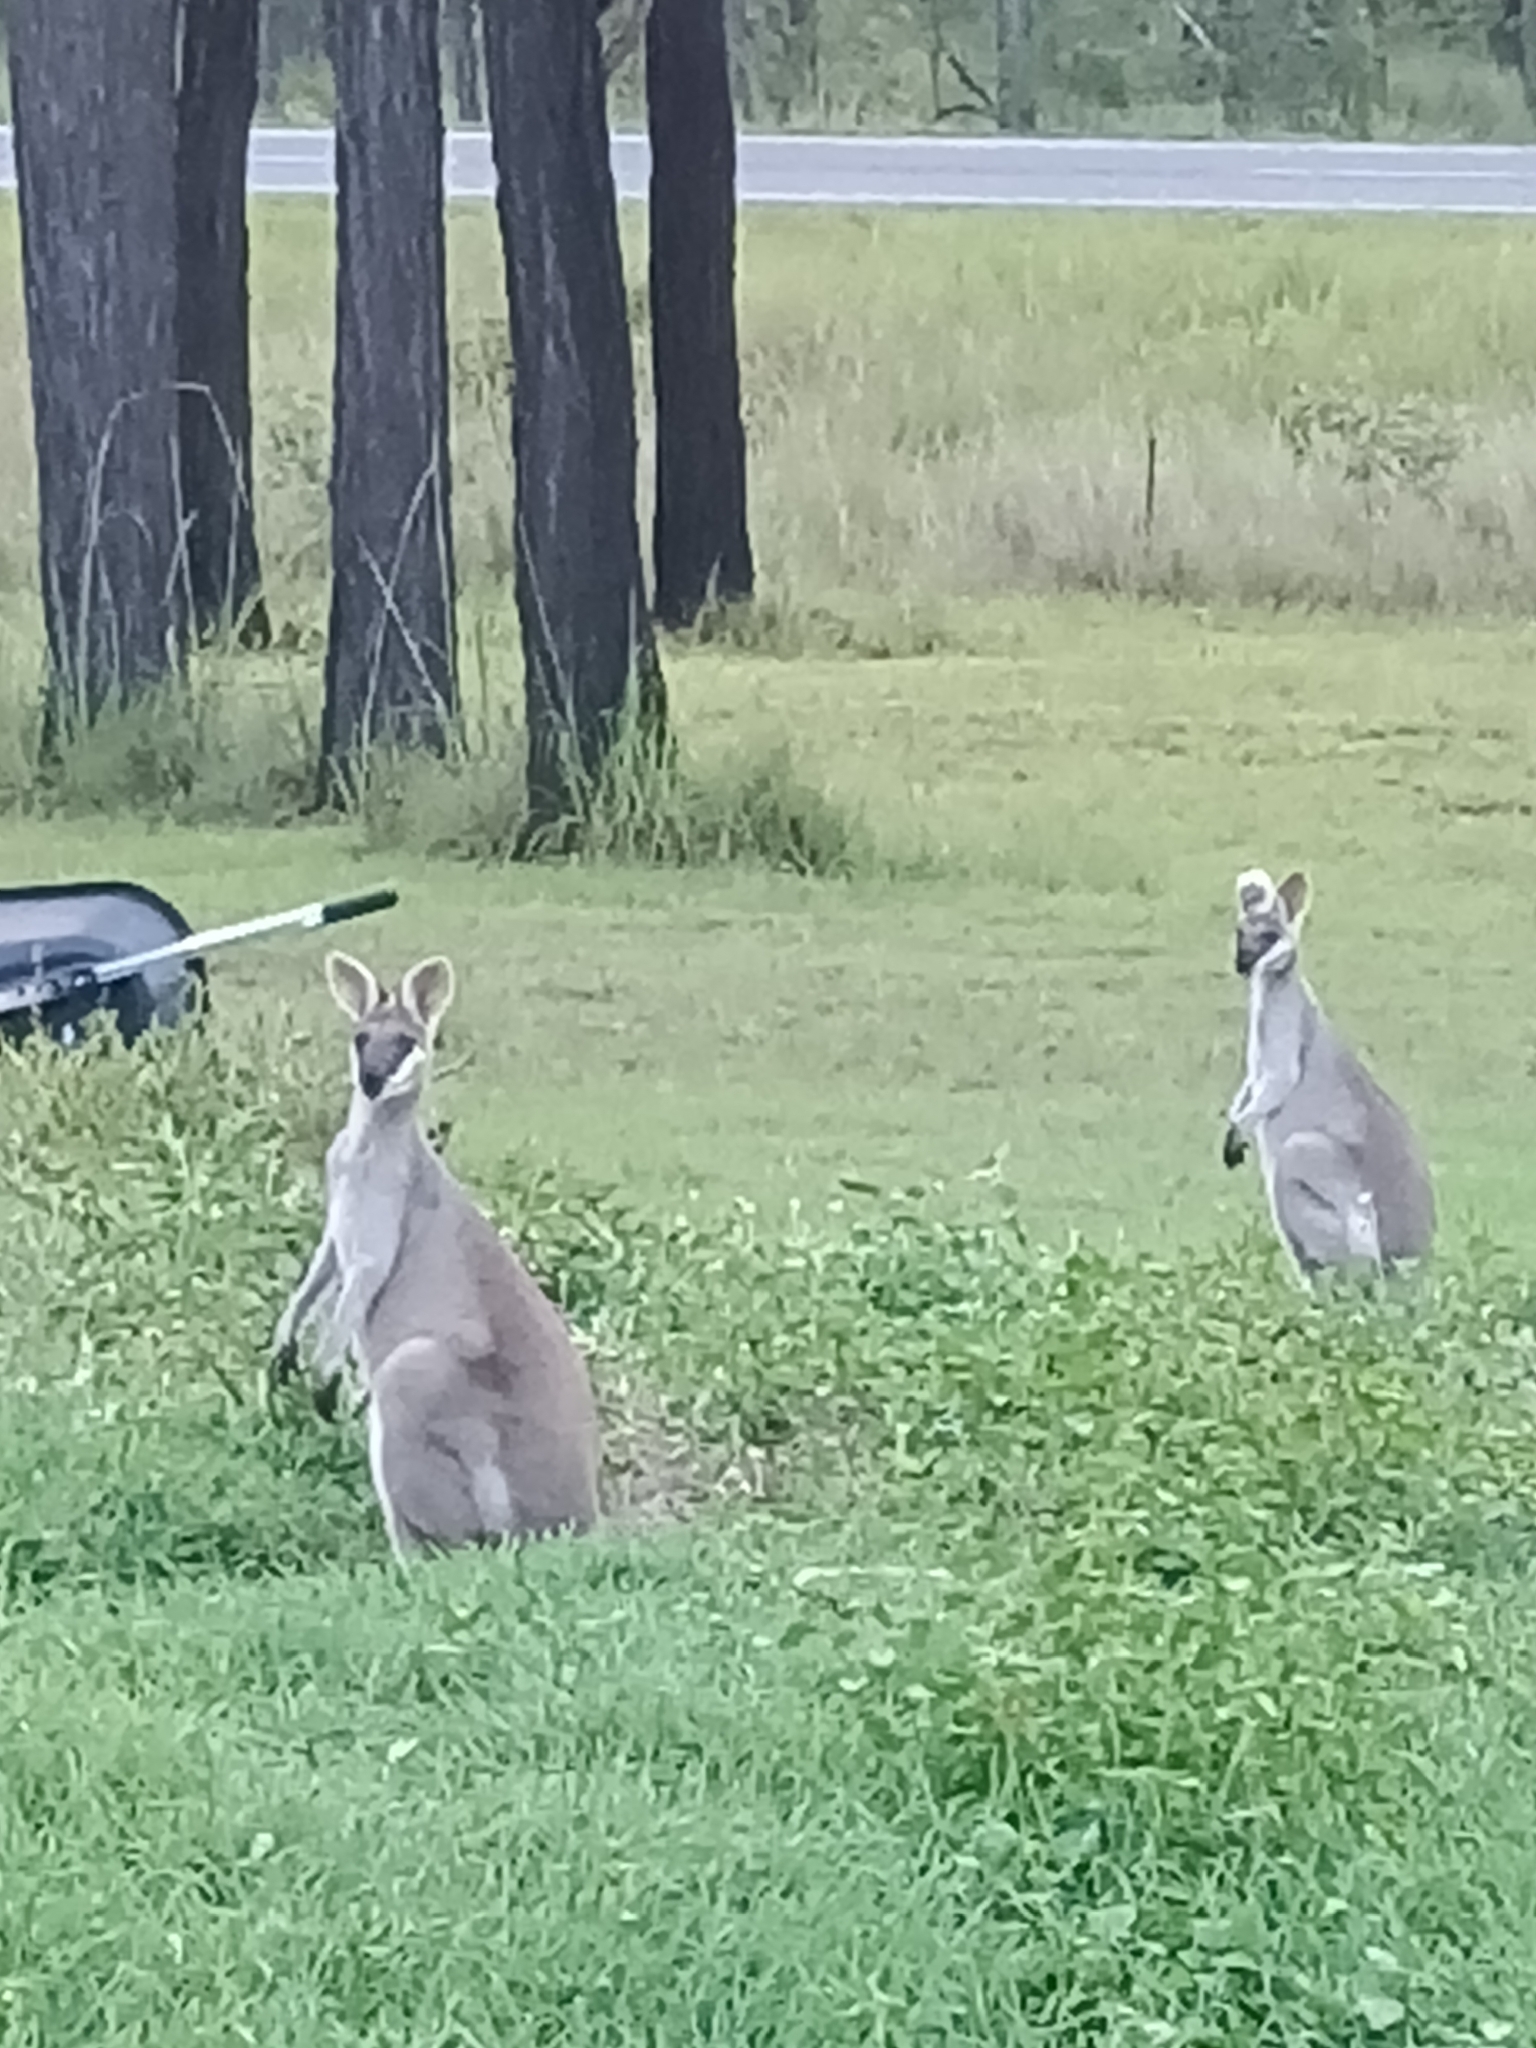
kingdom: Animalia
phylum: Chordata
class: Mammalia
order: Diprotodontia
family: Macropodidae
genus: Notamacropus
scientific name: Notamacropus parryi
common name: Whip-tailed wallaby
